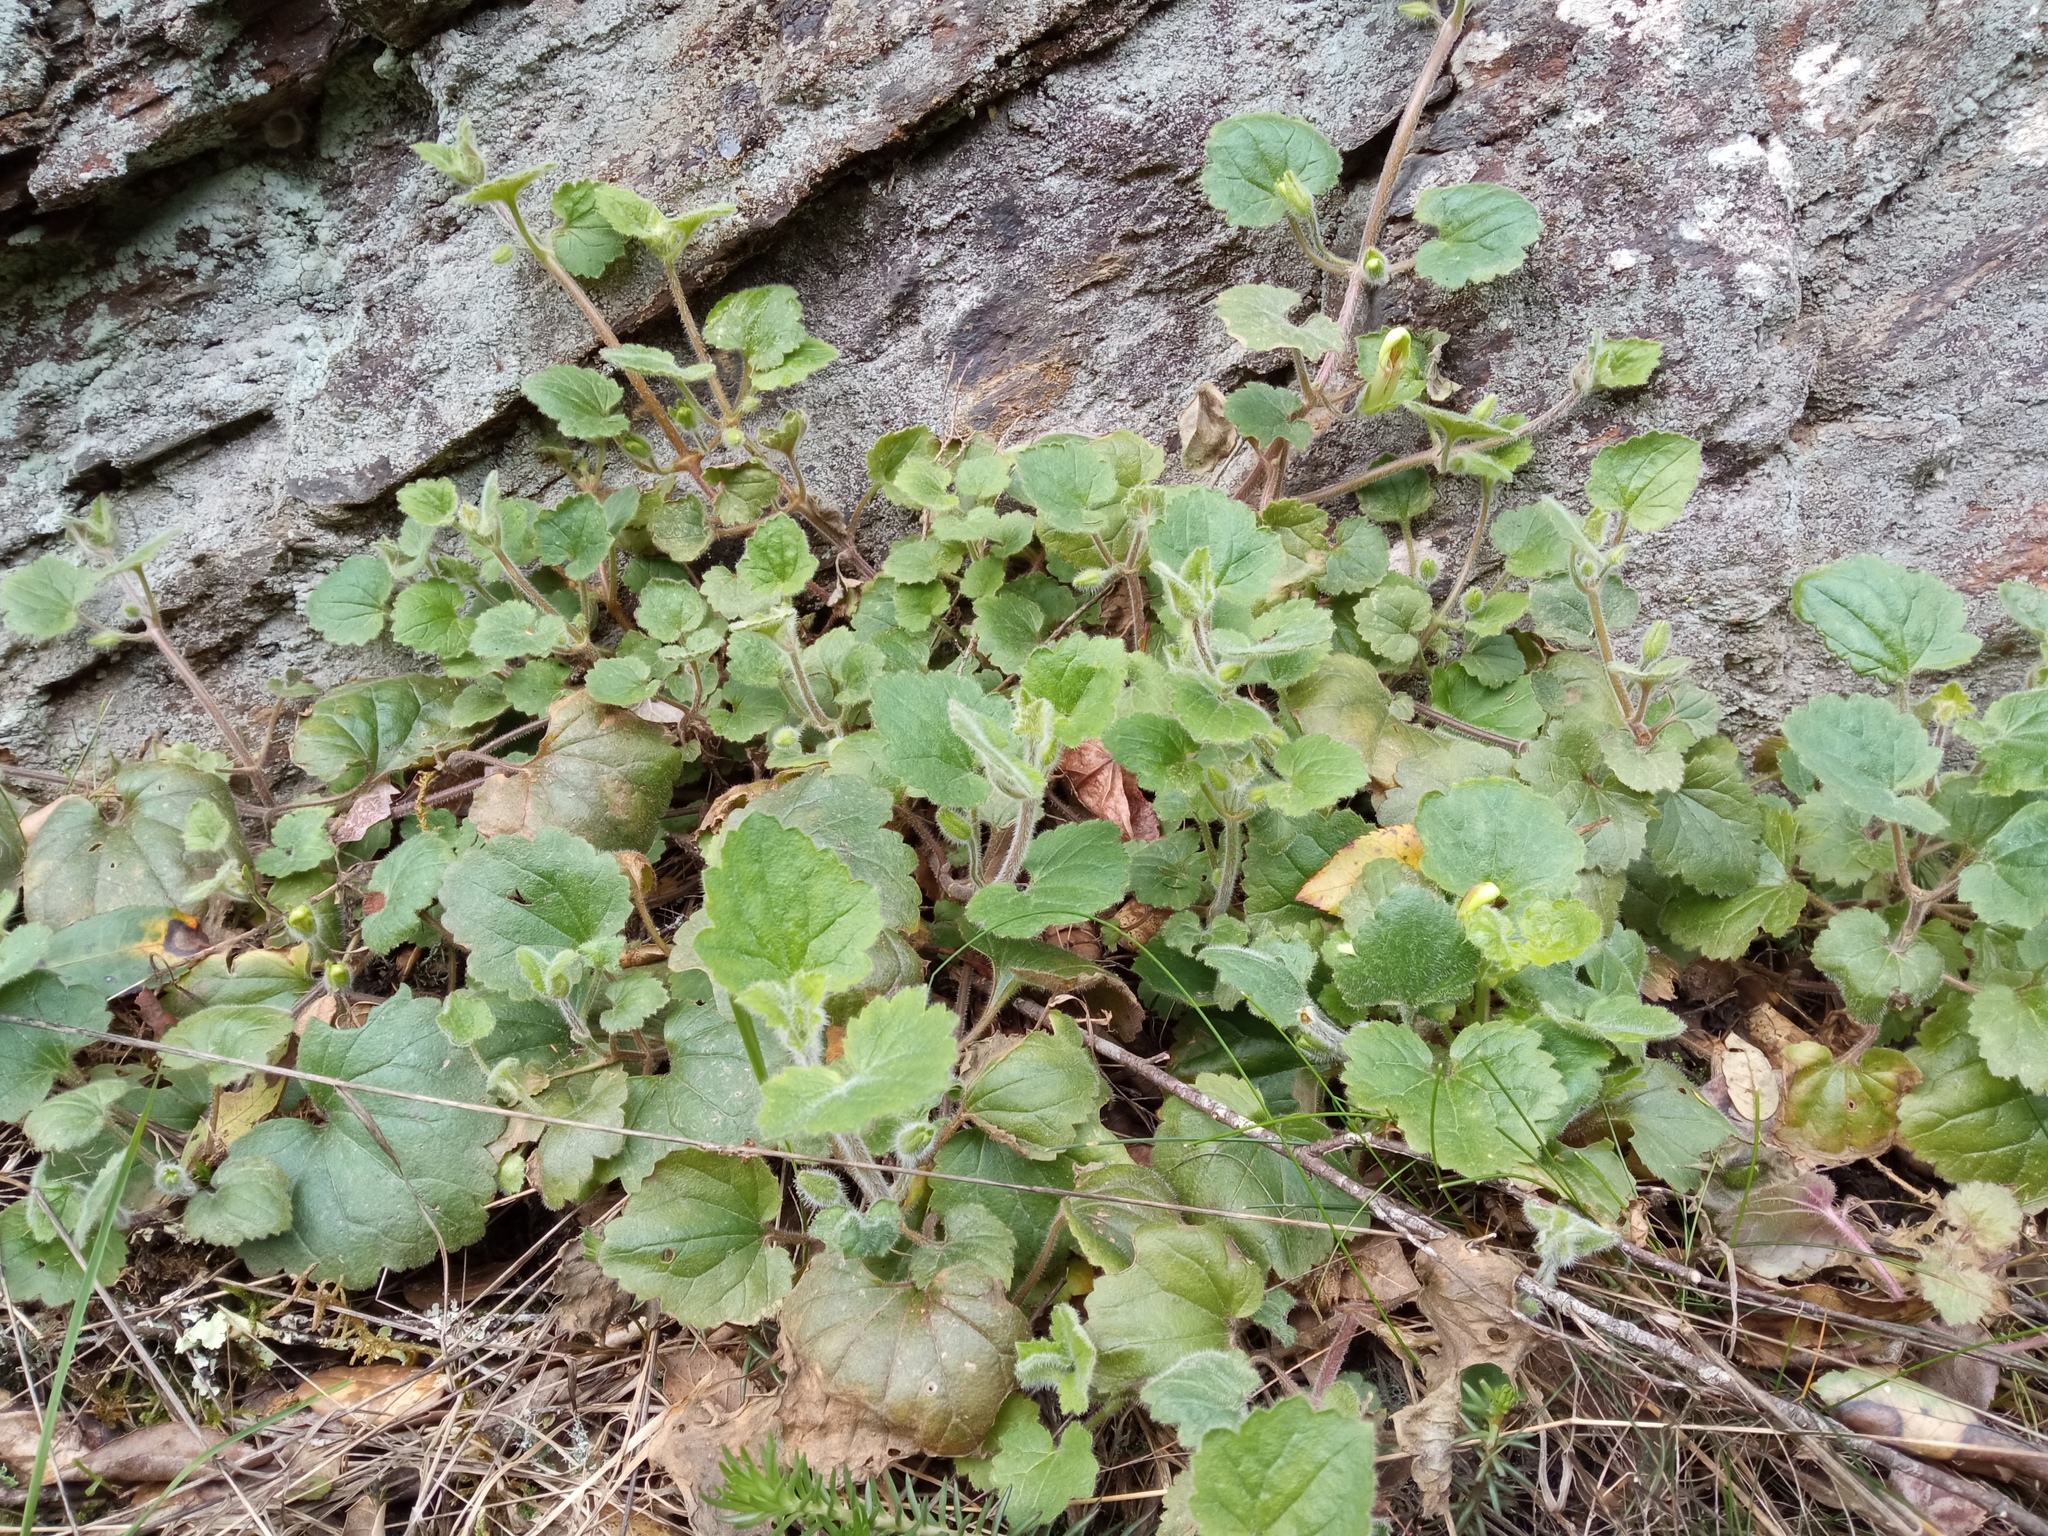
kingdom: Plantae
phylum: Tracheophyta
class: Magnoliopsida
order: Lamiales
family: Plantaginaceae
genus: Asarina
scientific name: Asarina procumbens
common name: Trailing snapdragon
